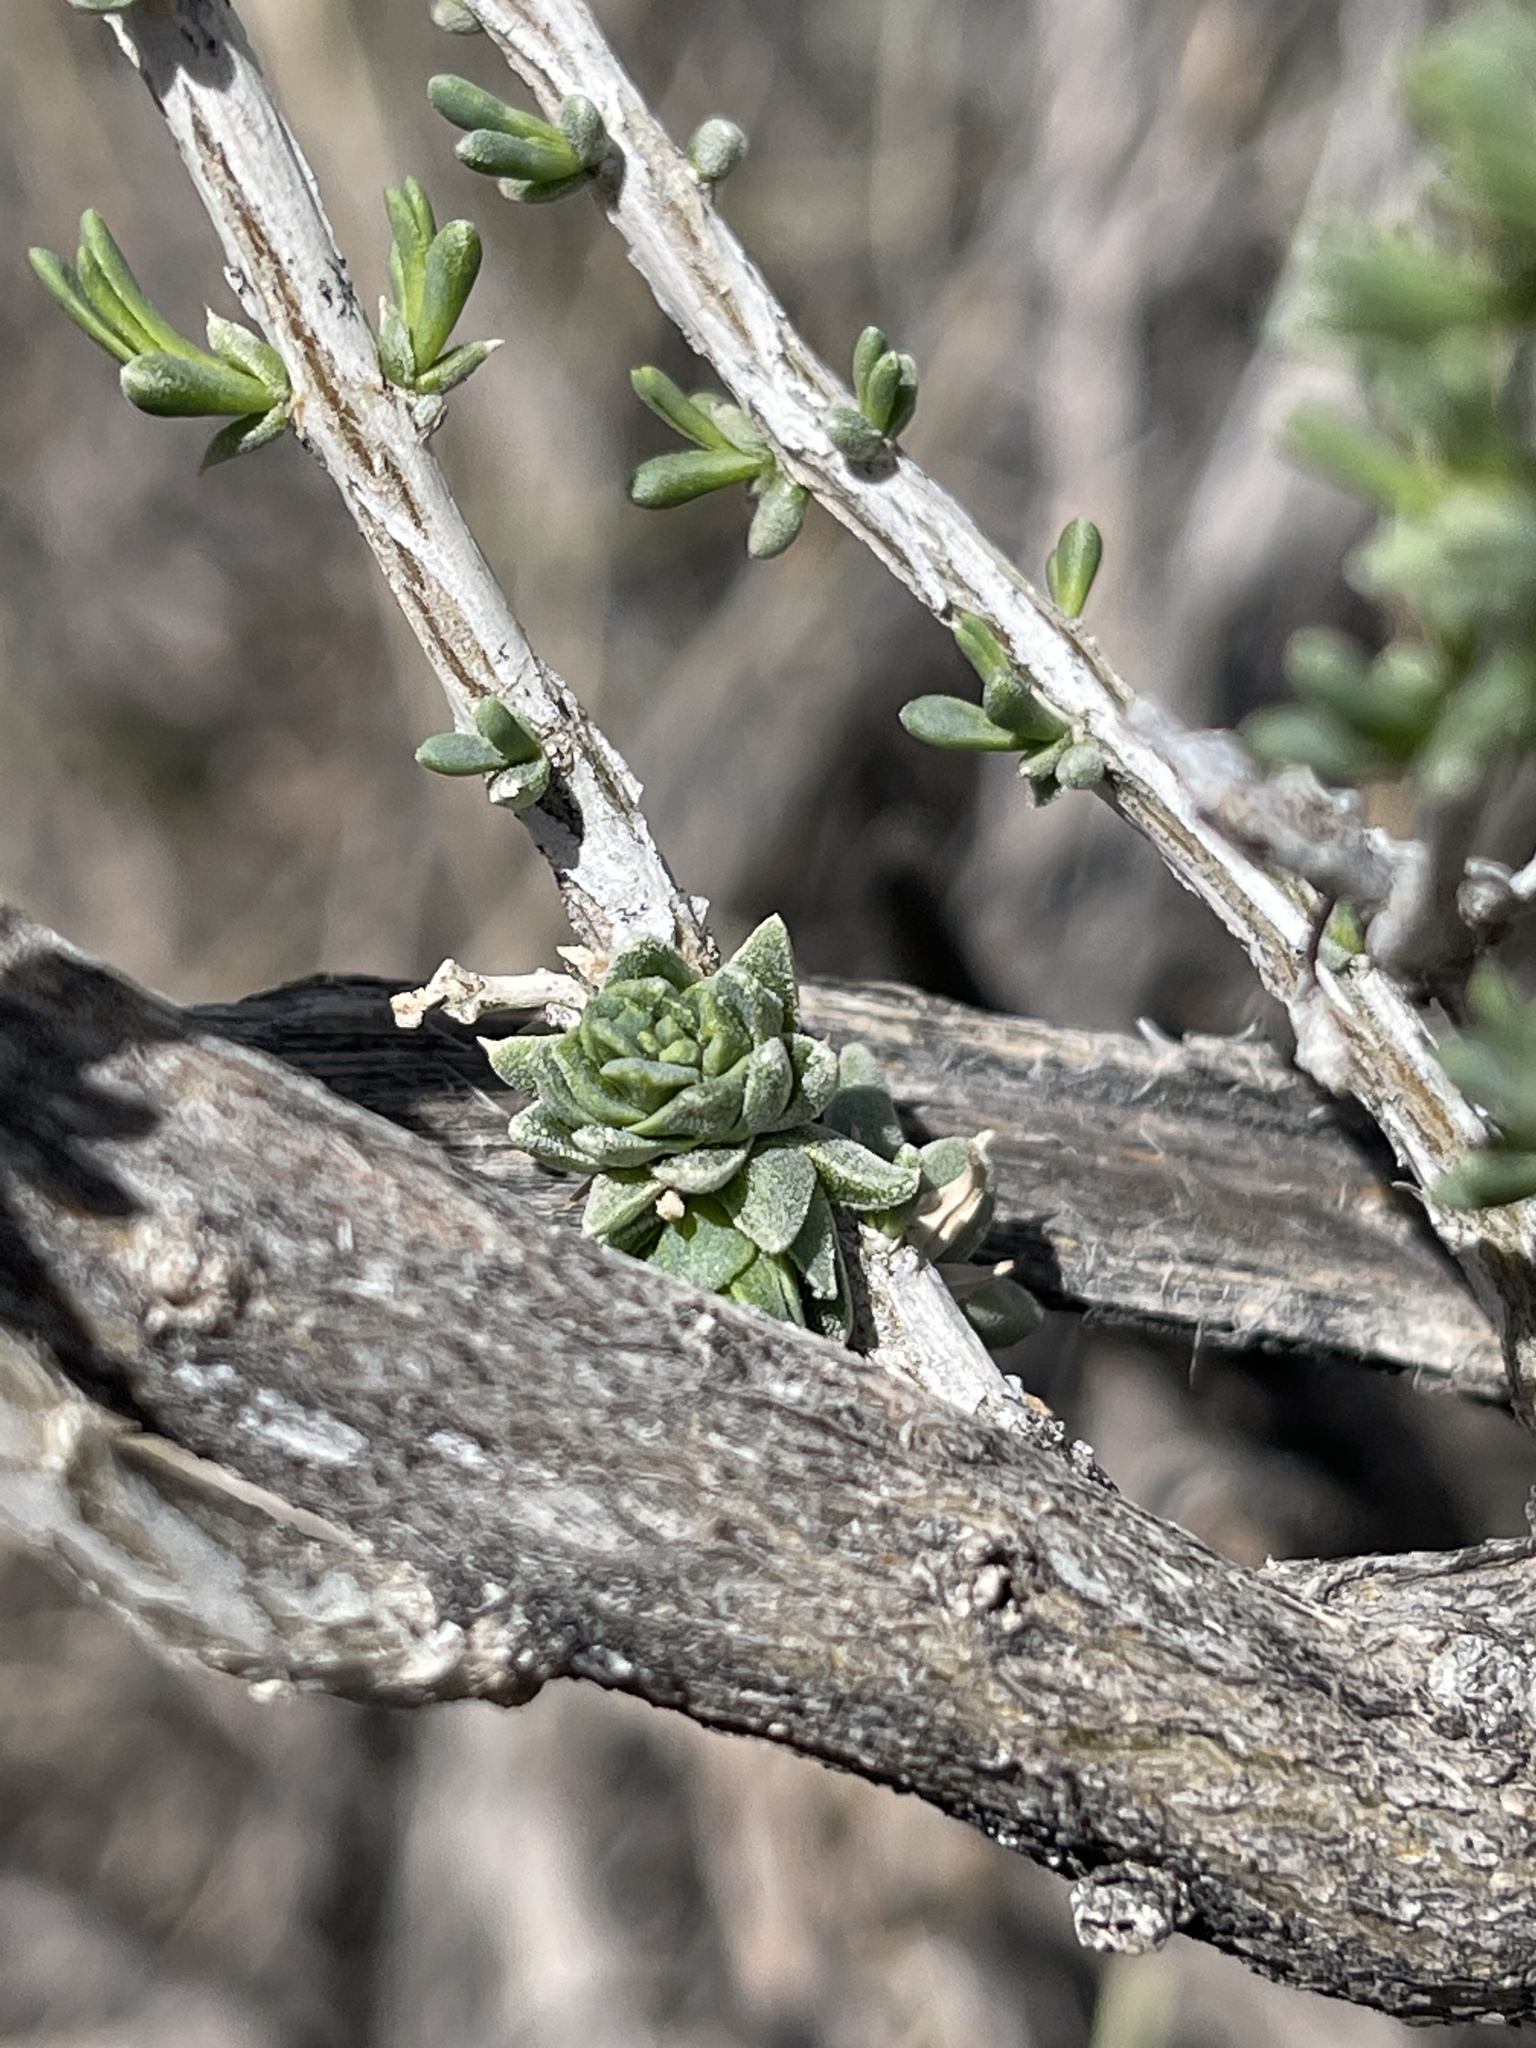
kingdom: Animalia
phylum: Arthropoda
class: Insecta
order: Diptera
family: Cecidomyiidae
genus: Halodiplosis
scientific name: Halodiplosis sarcobati
